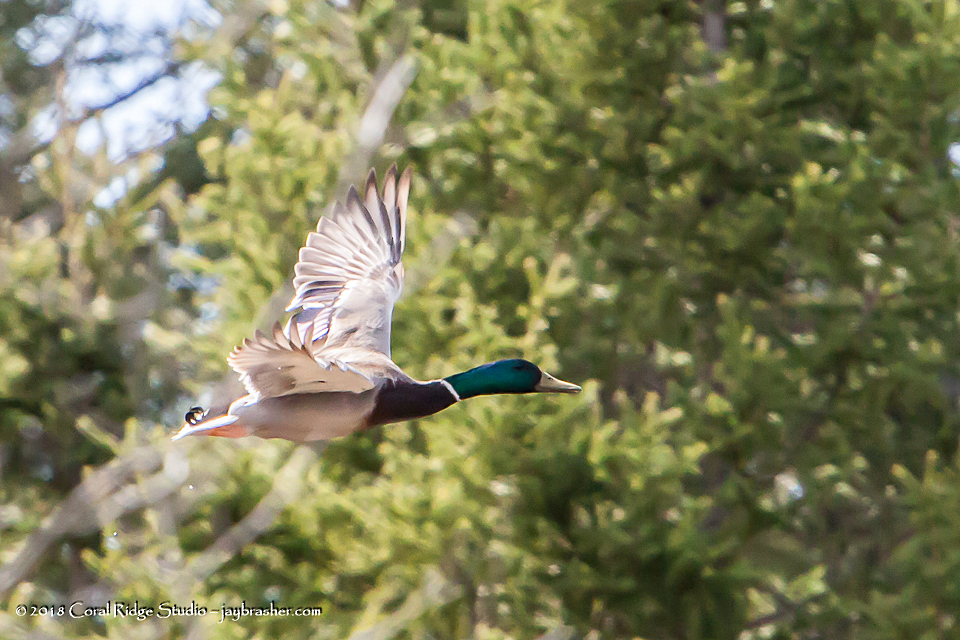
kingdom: Animalia
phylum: Chordata
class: Aves
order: Anseriformes
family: Anatidae
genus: Anas
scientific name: Anas platyrhynchos
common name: Mallard
